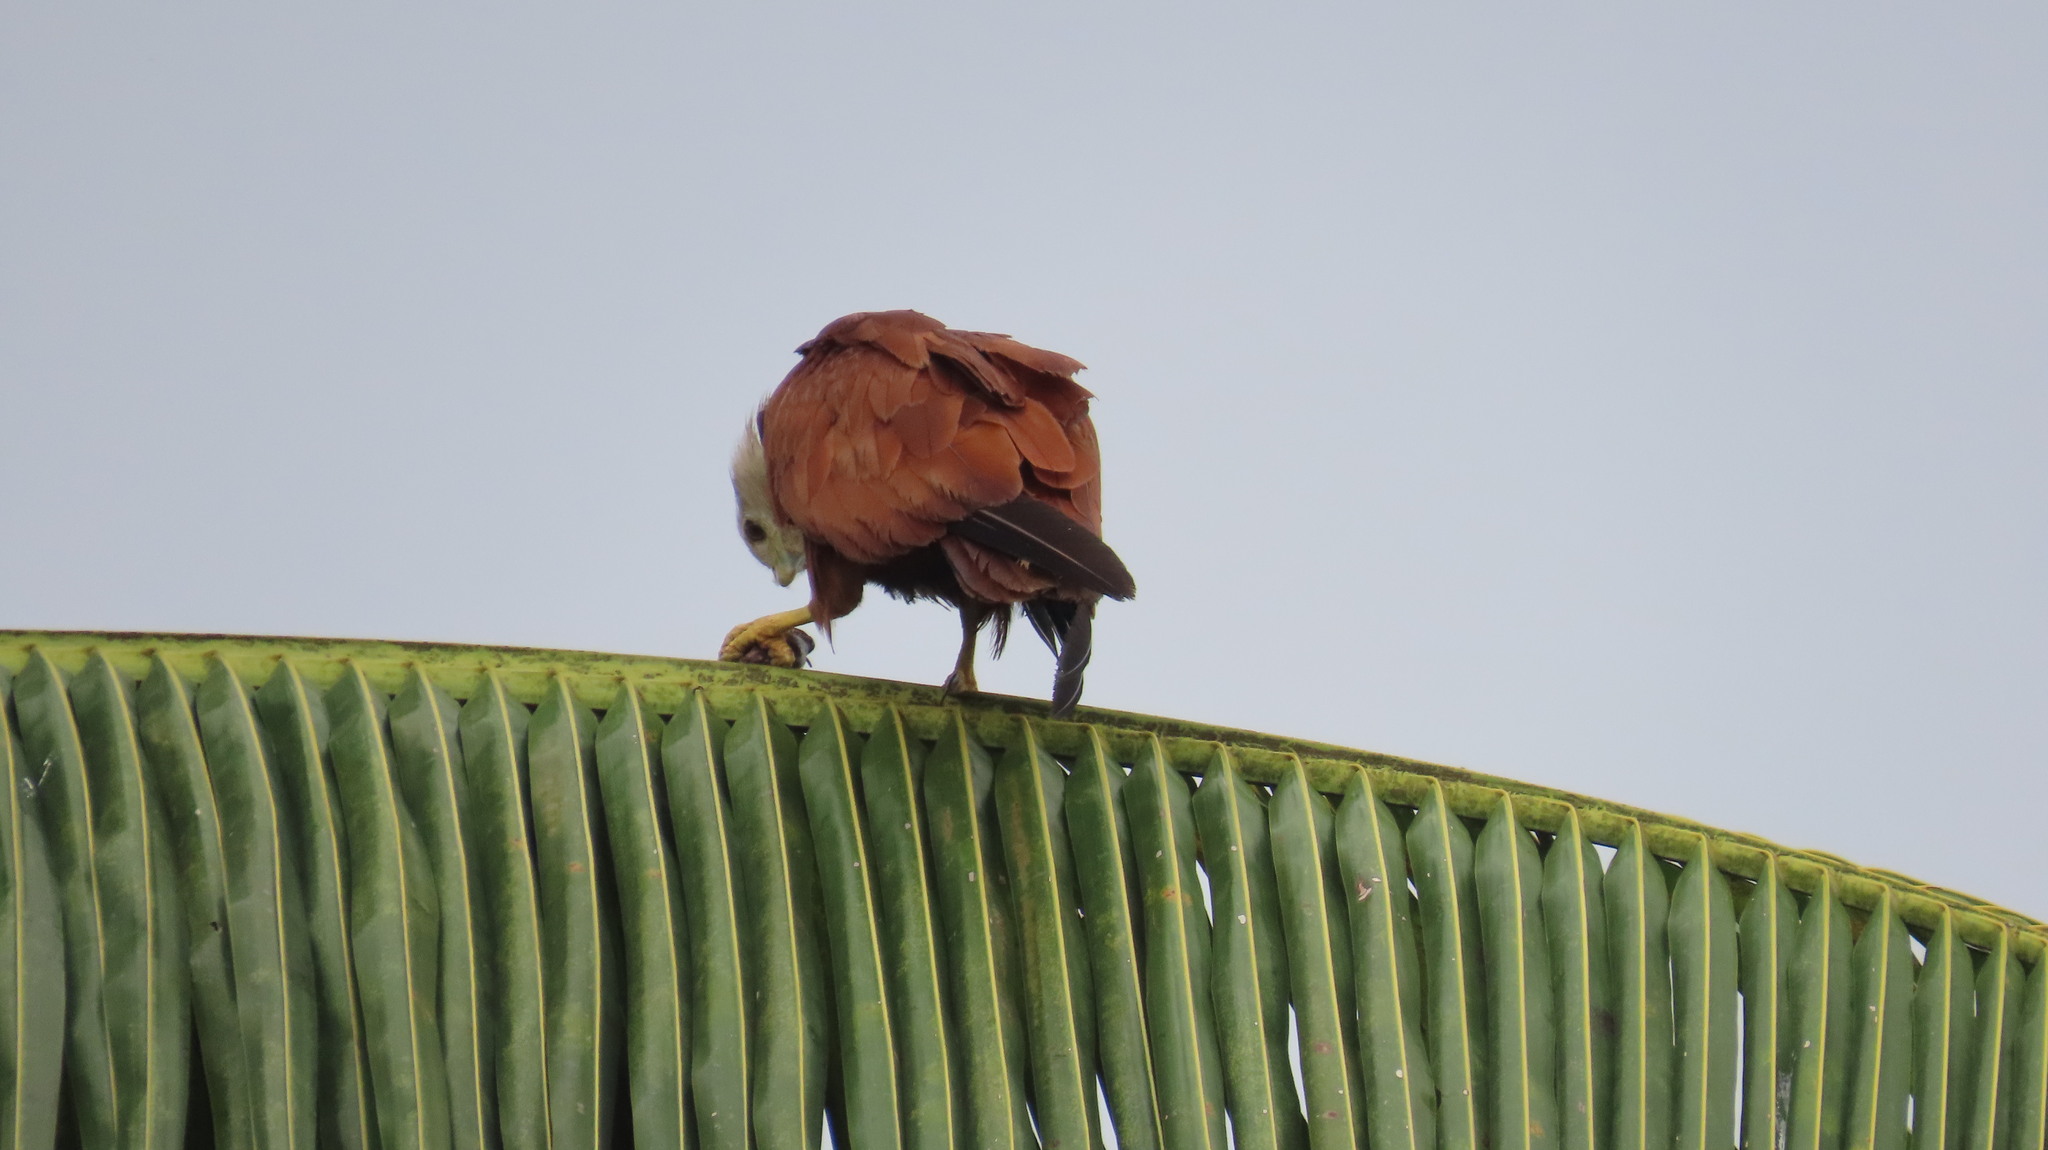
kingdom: Animalia
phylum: Chordata
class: Aves
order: Accipitriformes
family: Accipitridae
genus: Haliastur
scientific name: Haliastur indus
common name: Brahminy kite
